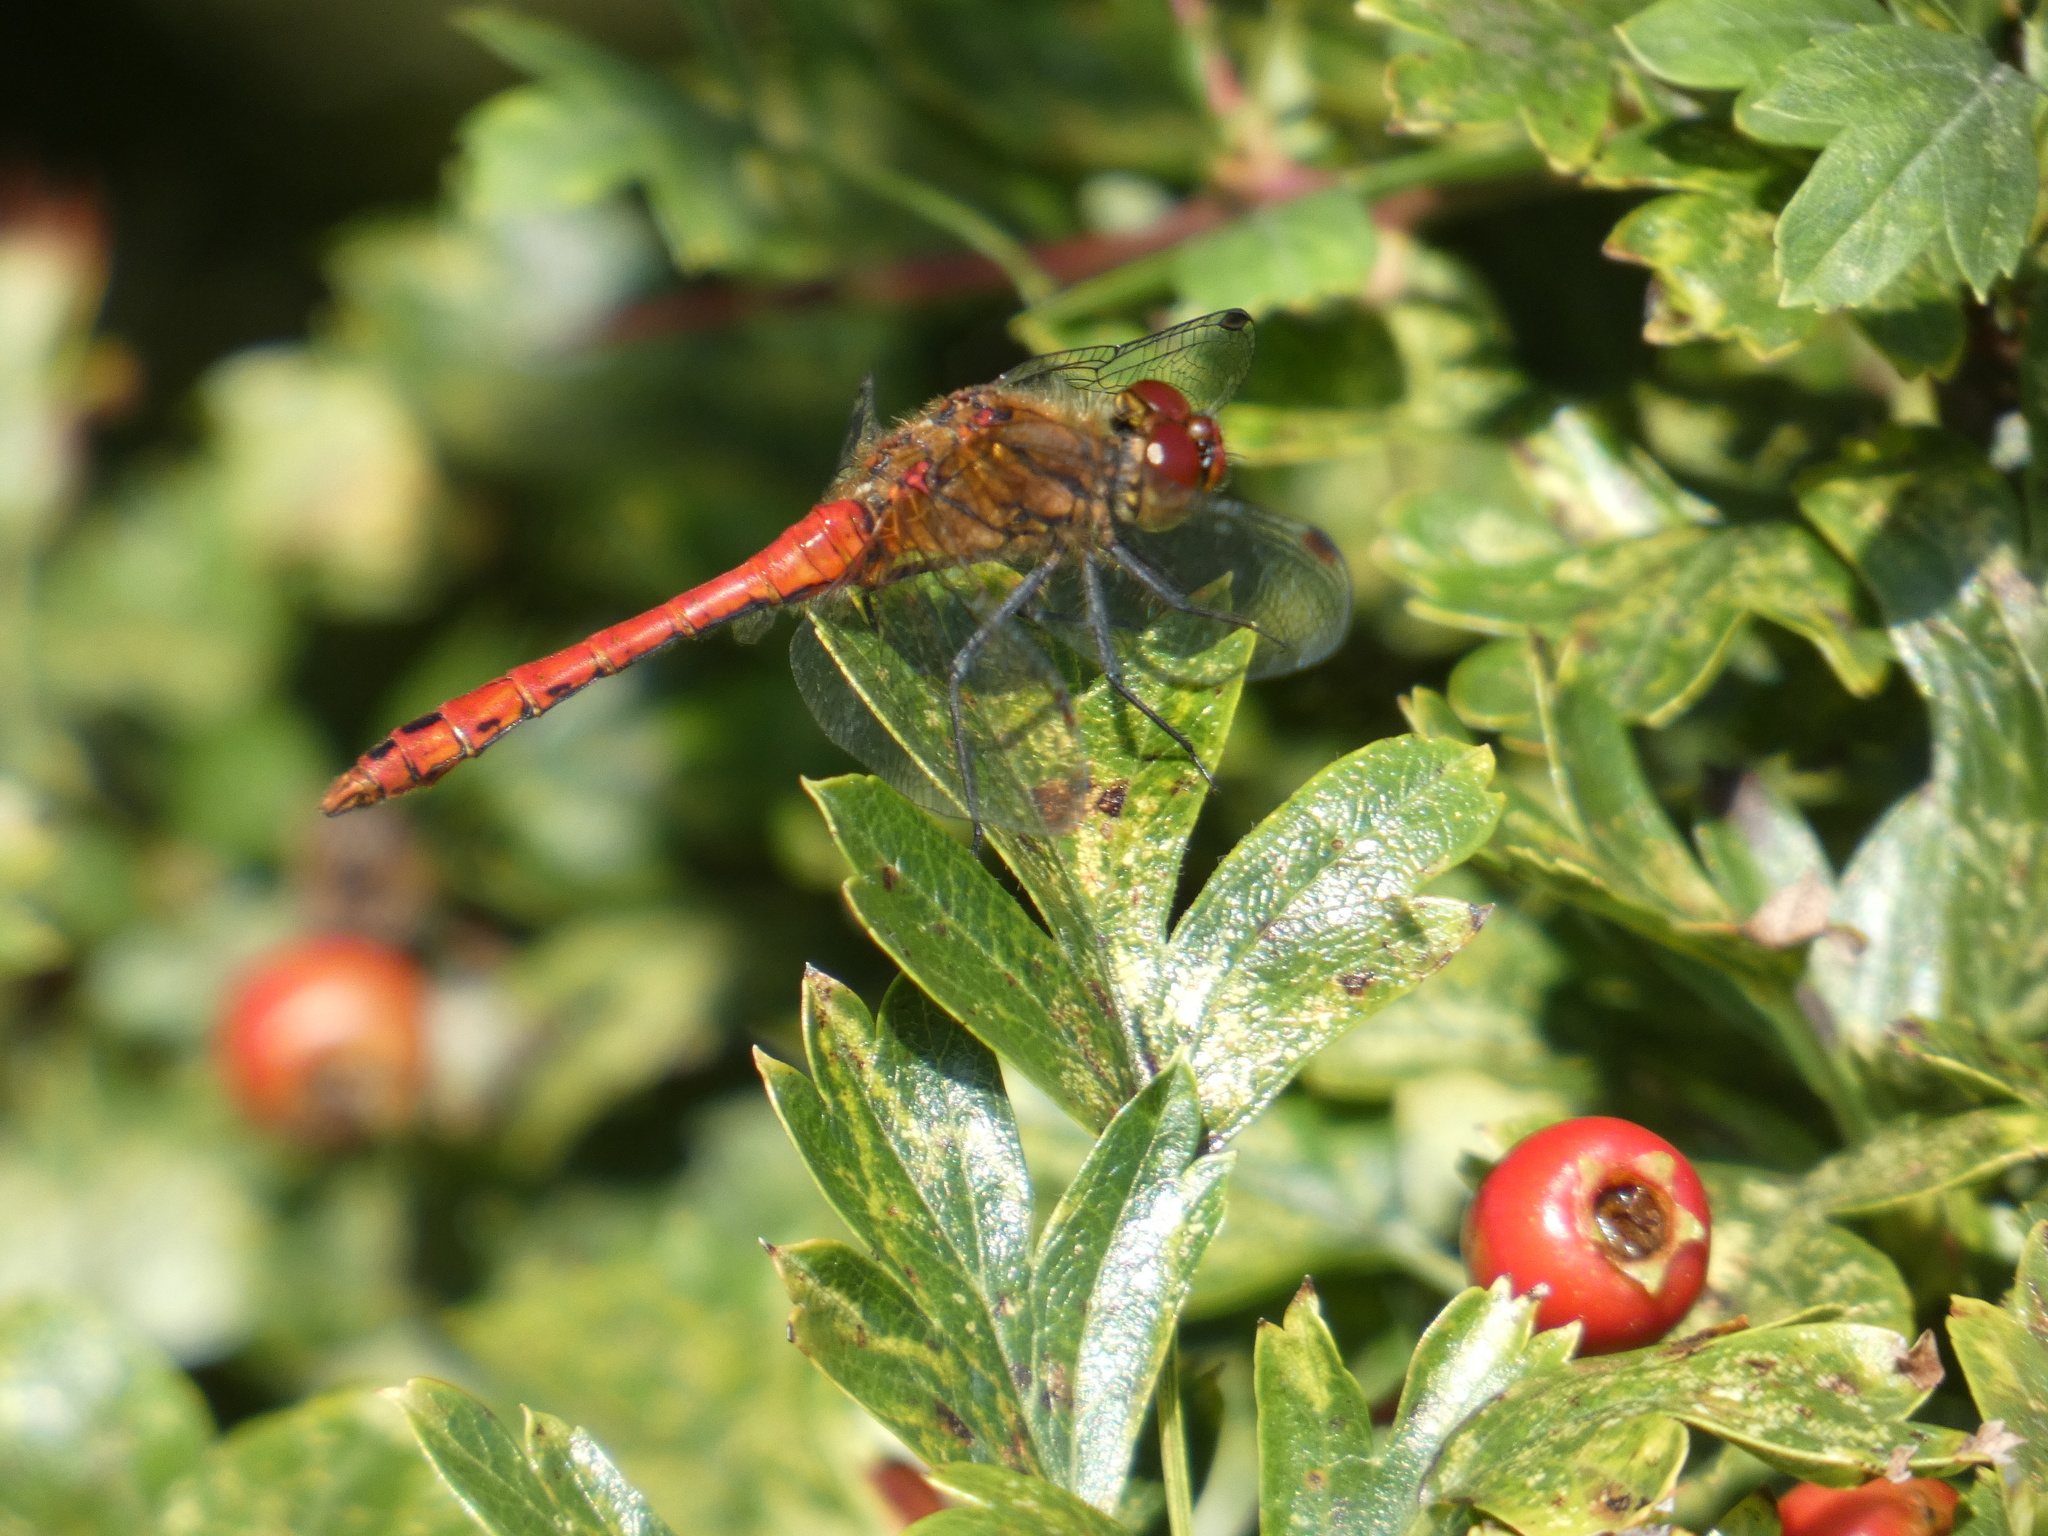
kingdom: Animalia
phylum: Arthropoda
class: Insecta
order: Odonata
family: Libellulidae
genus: Sympetrum
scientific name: Sympetrum sanguineum
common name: Ruddy darter
